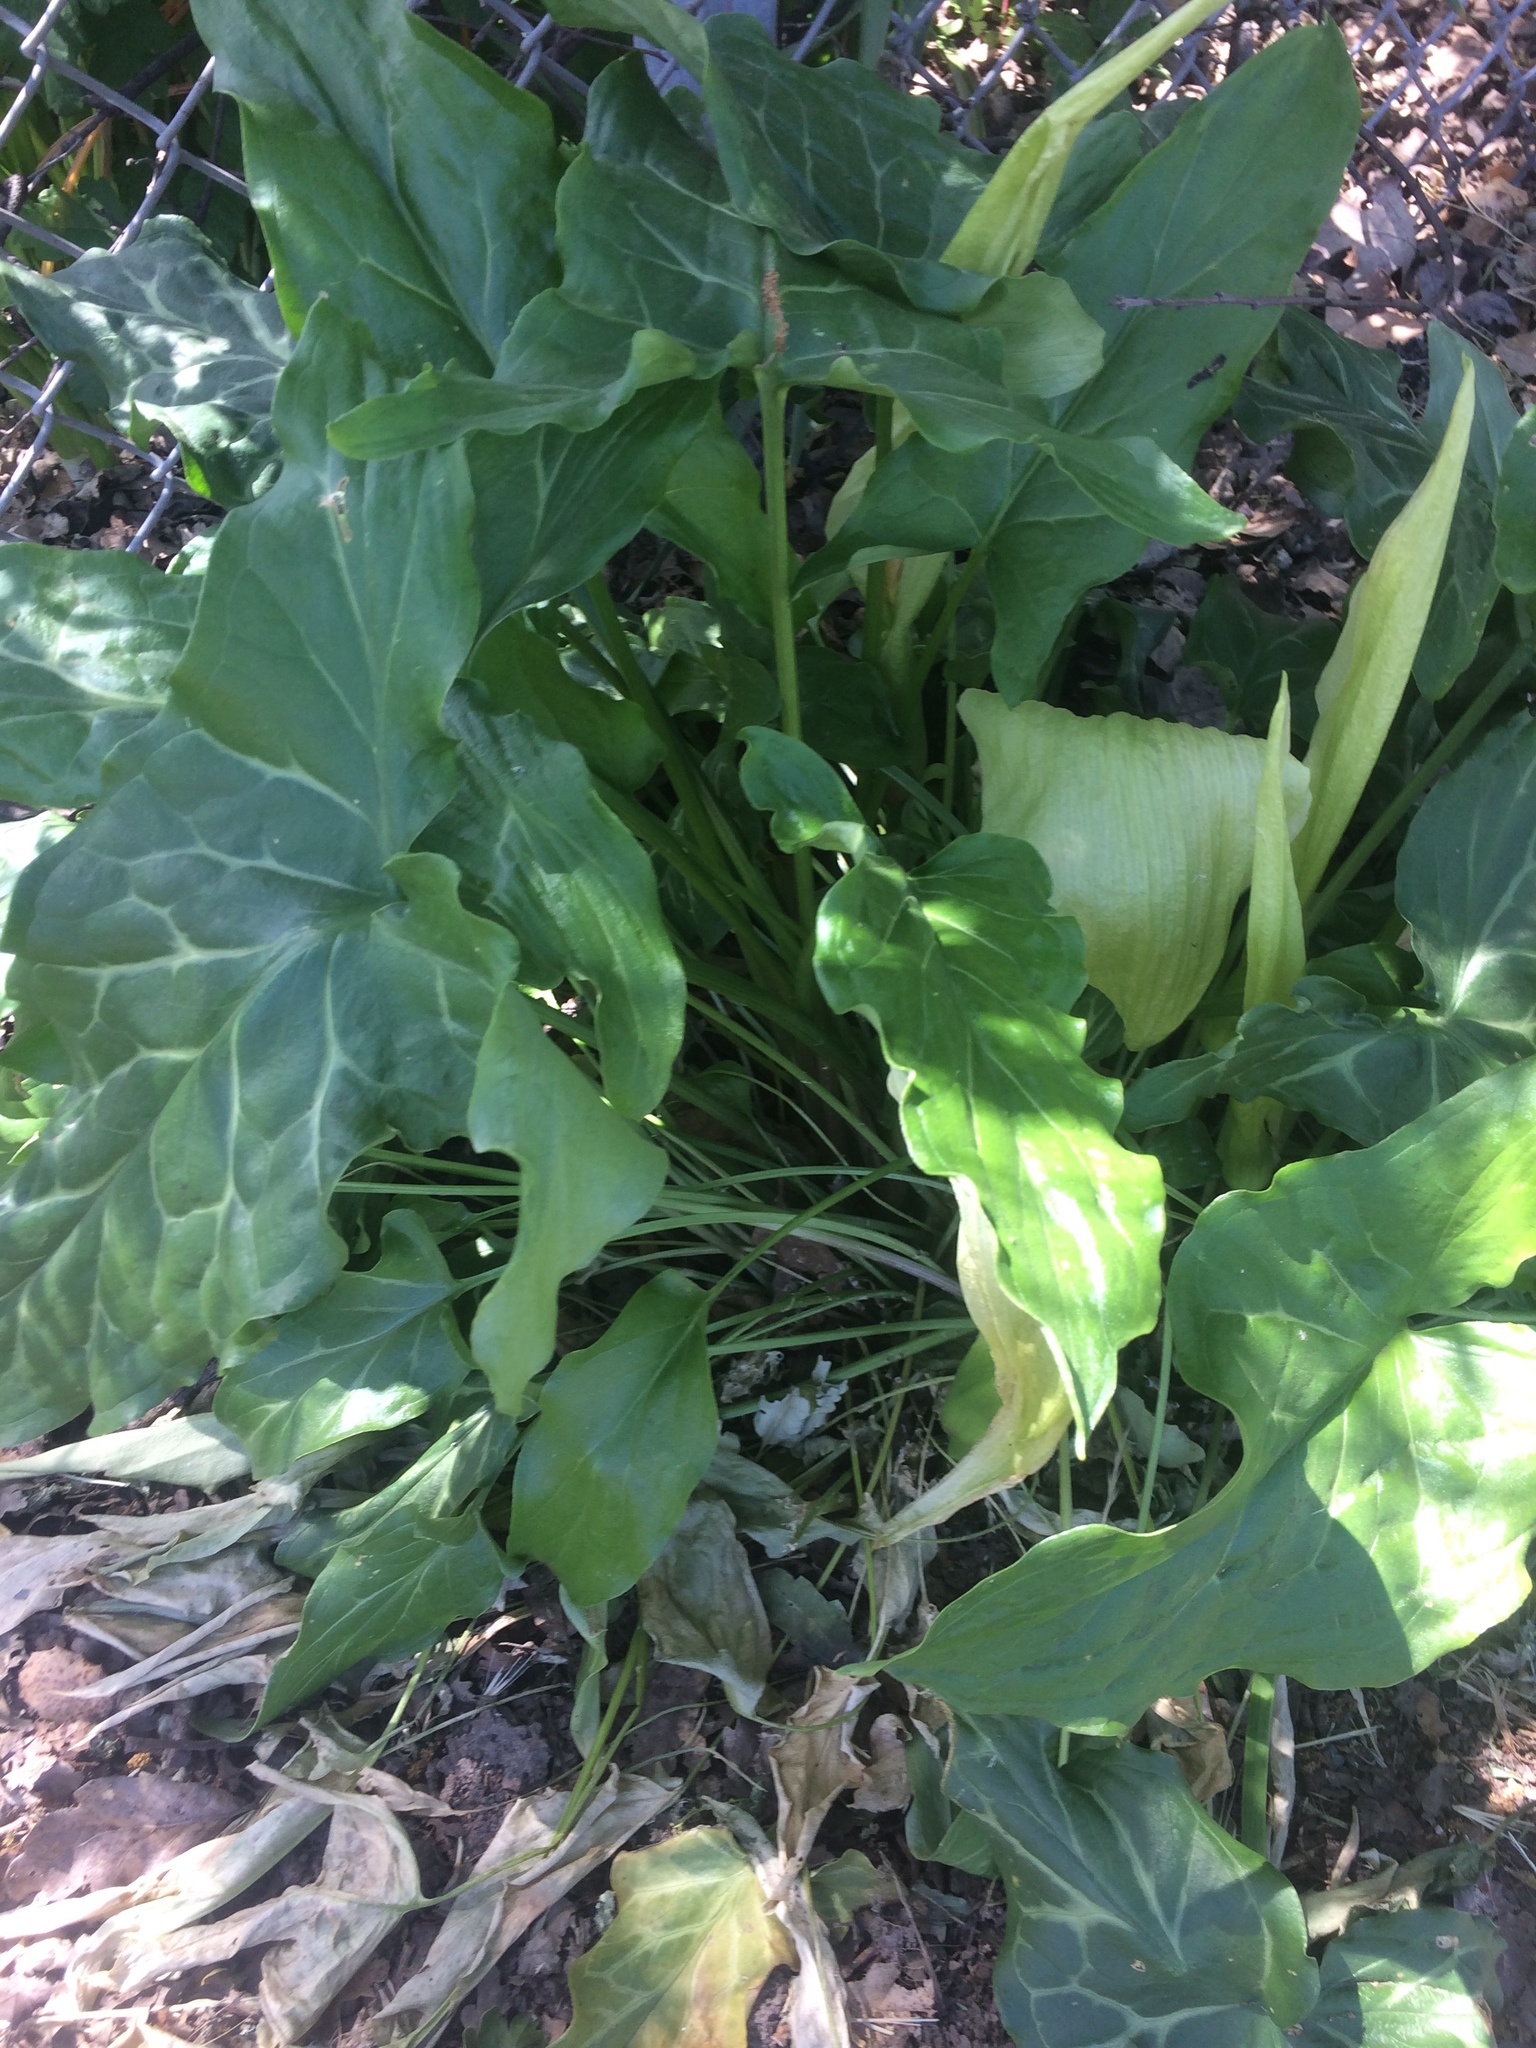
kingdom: Plantae
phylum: Tracheophyta
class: Liliopsida
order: Alismatales
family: Araceae
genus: Arum
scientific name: Arum italicum
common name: Italian lords-and-ladies
